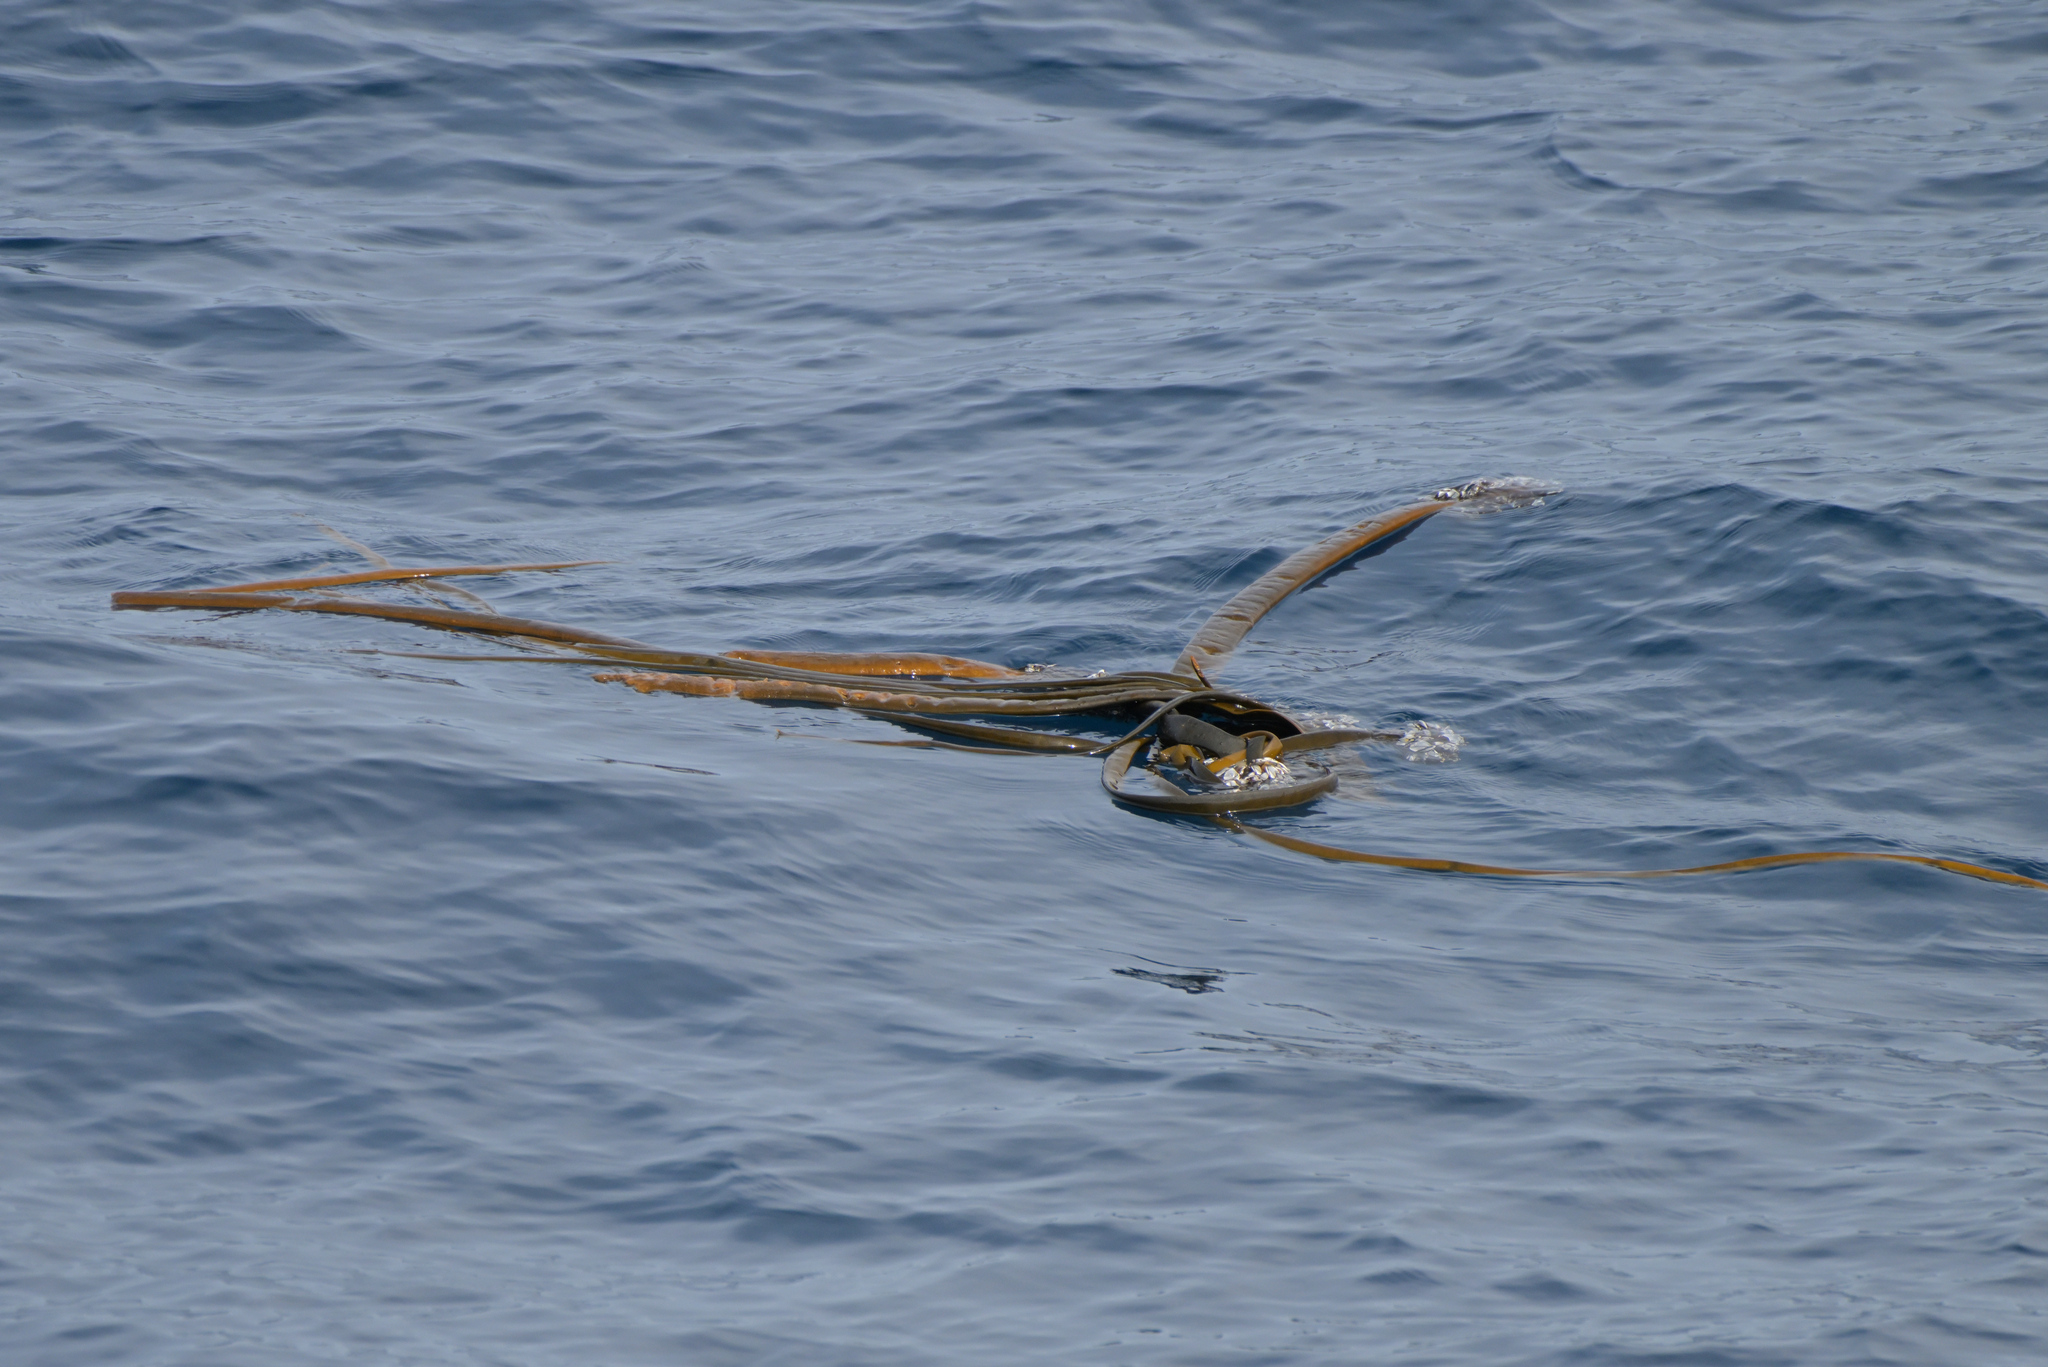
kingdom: Chromista
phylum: Ochrophyta
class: Phaeophyceae
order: Fucales
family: Durvillaeaceae
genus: Durvillaea
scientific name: Durvillaea antarctica
